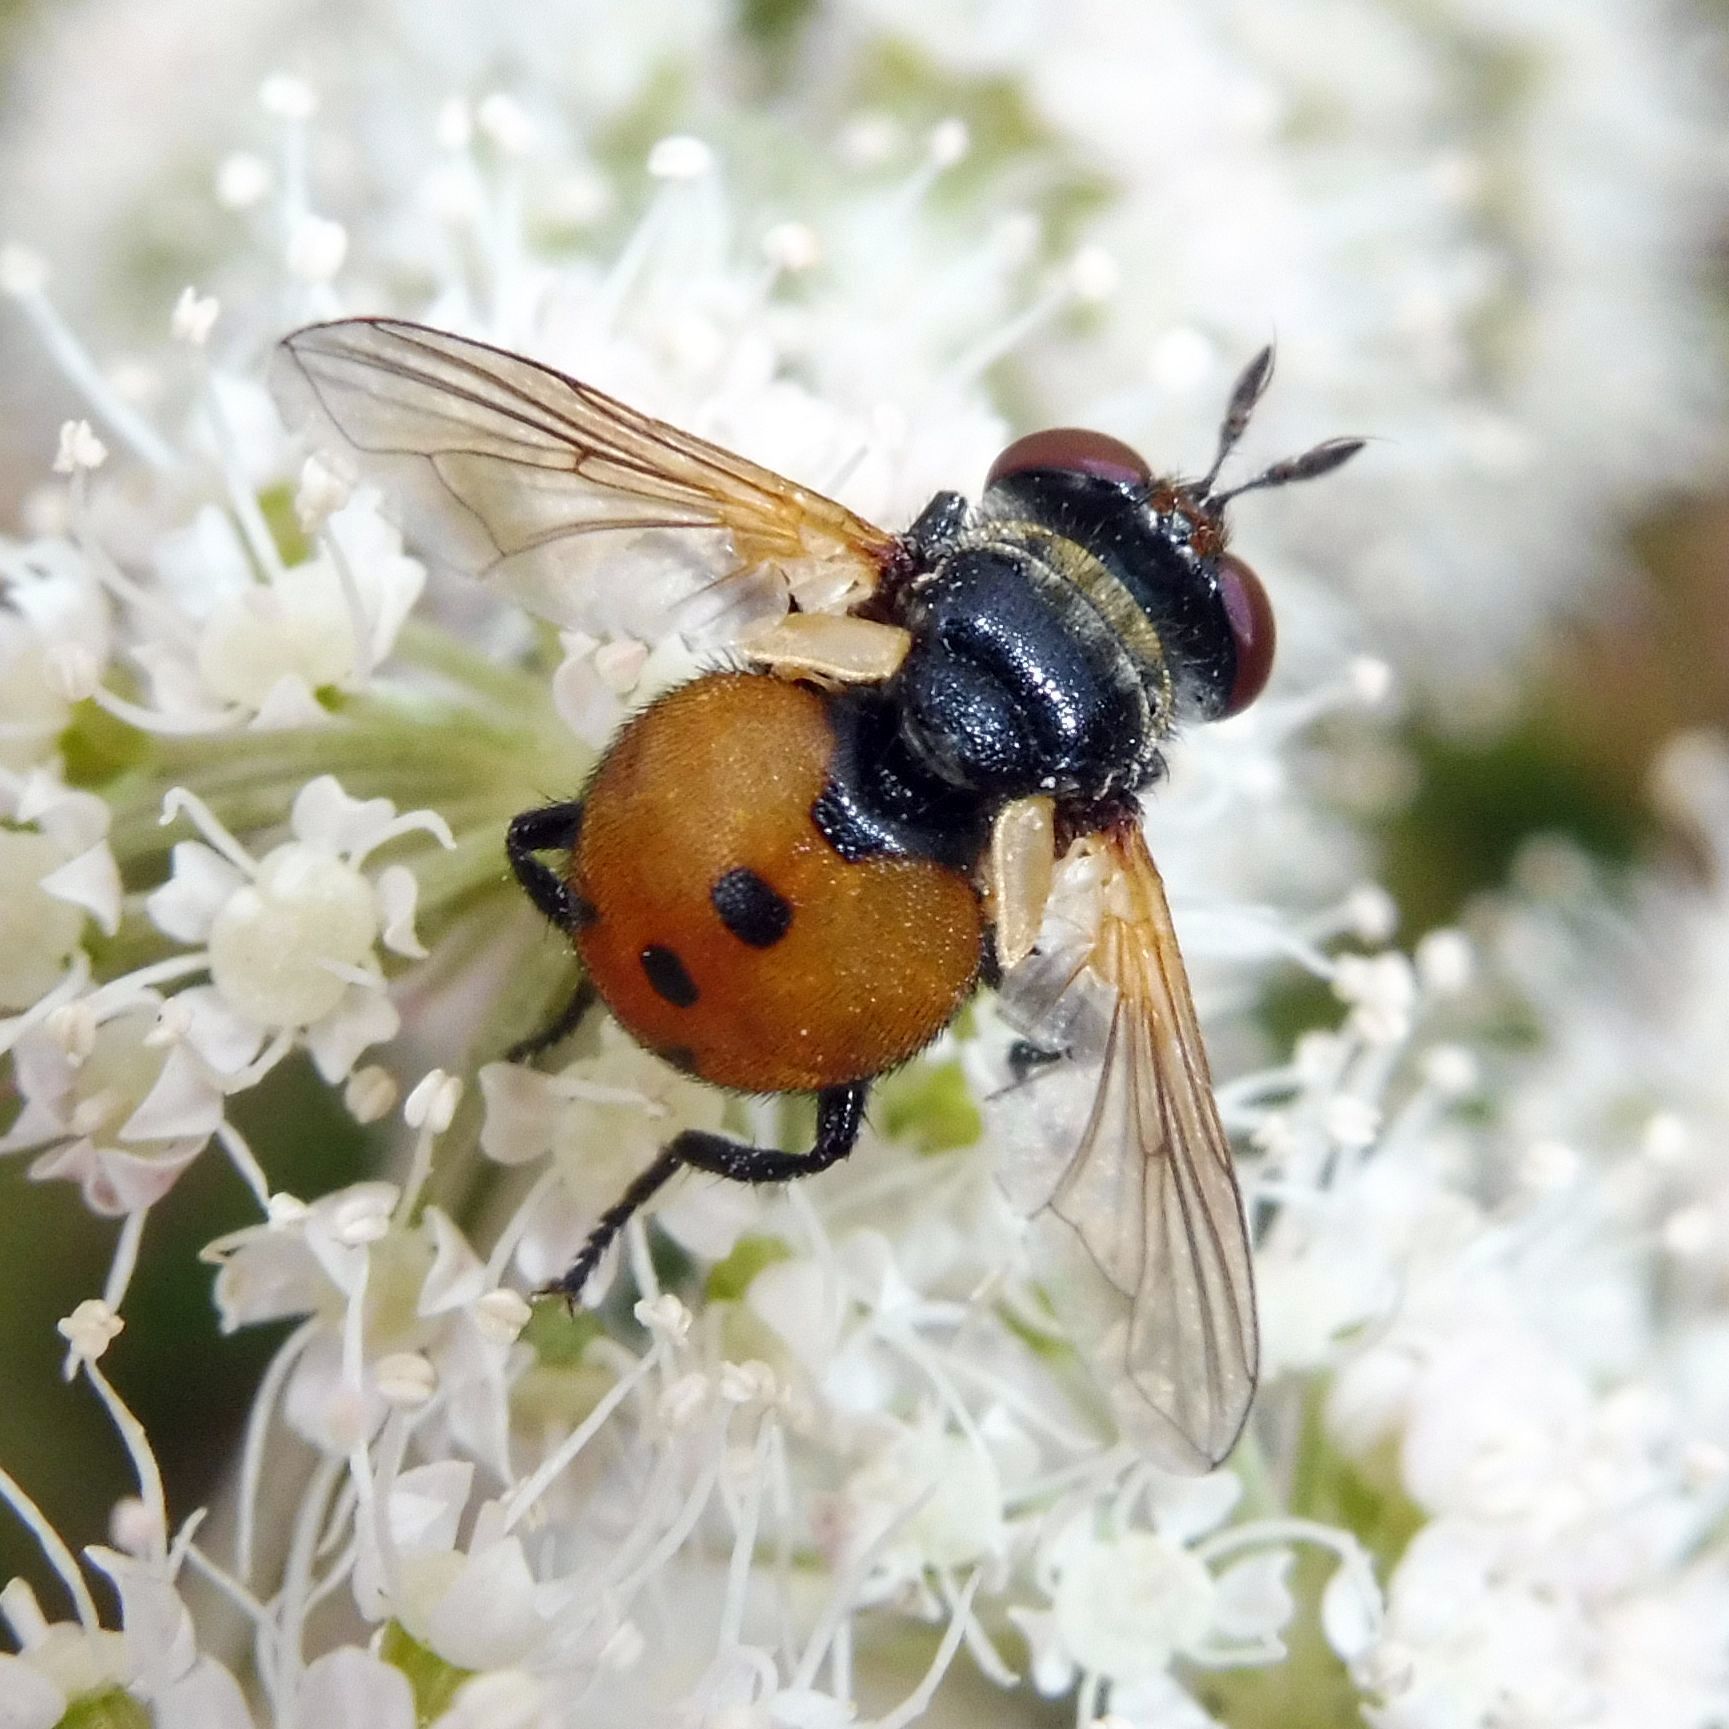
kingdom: Animalia
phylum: Arthropoda
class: Insecta
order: Diptera
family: Tachinidae
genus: Gymnosoma
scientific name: Gymnosoma rotundatum
